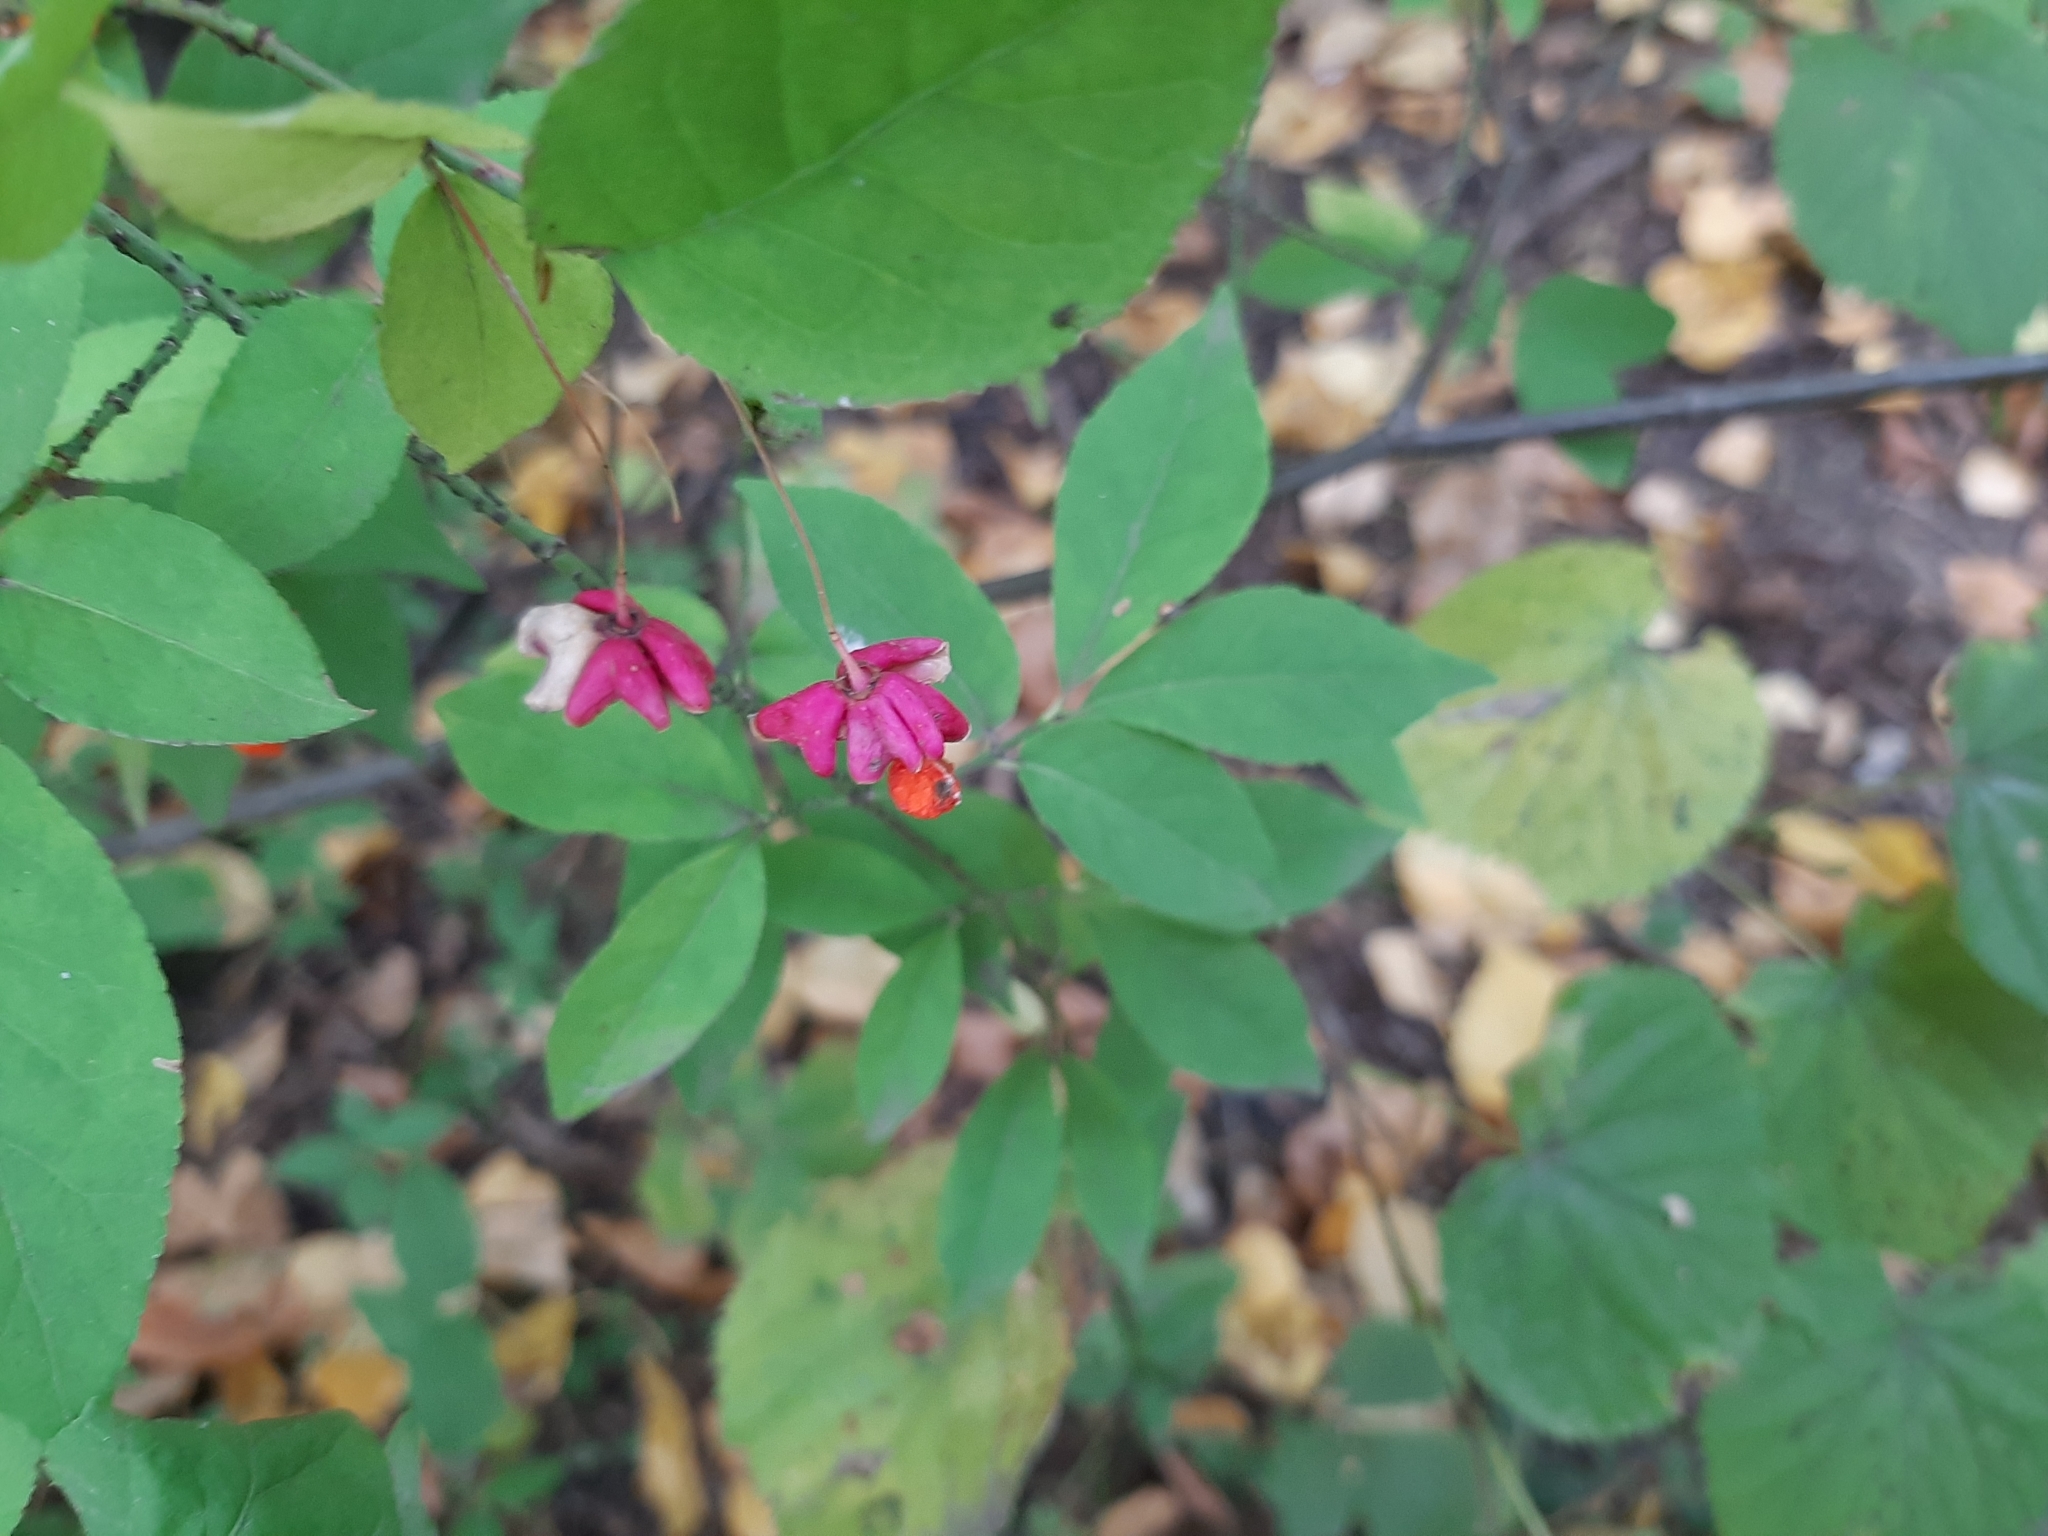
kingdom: Plantae
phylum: Tracheophyta
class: Magnoliopsida
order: Celastrales
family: Celastraceae
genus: Euonymus
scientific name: Euonymus verrucosus
